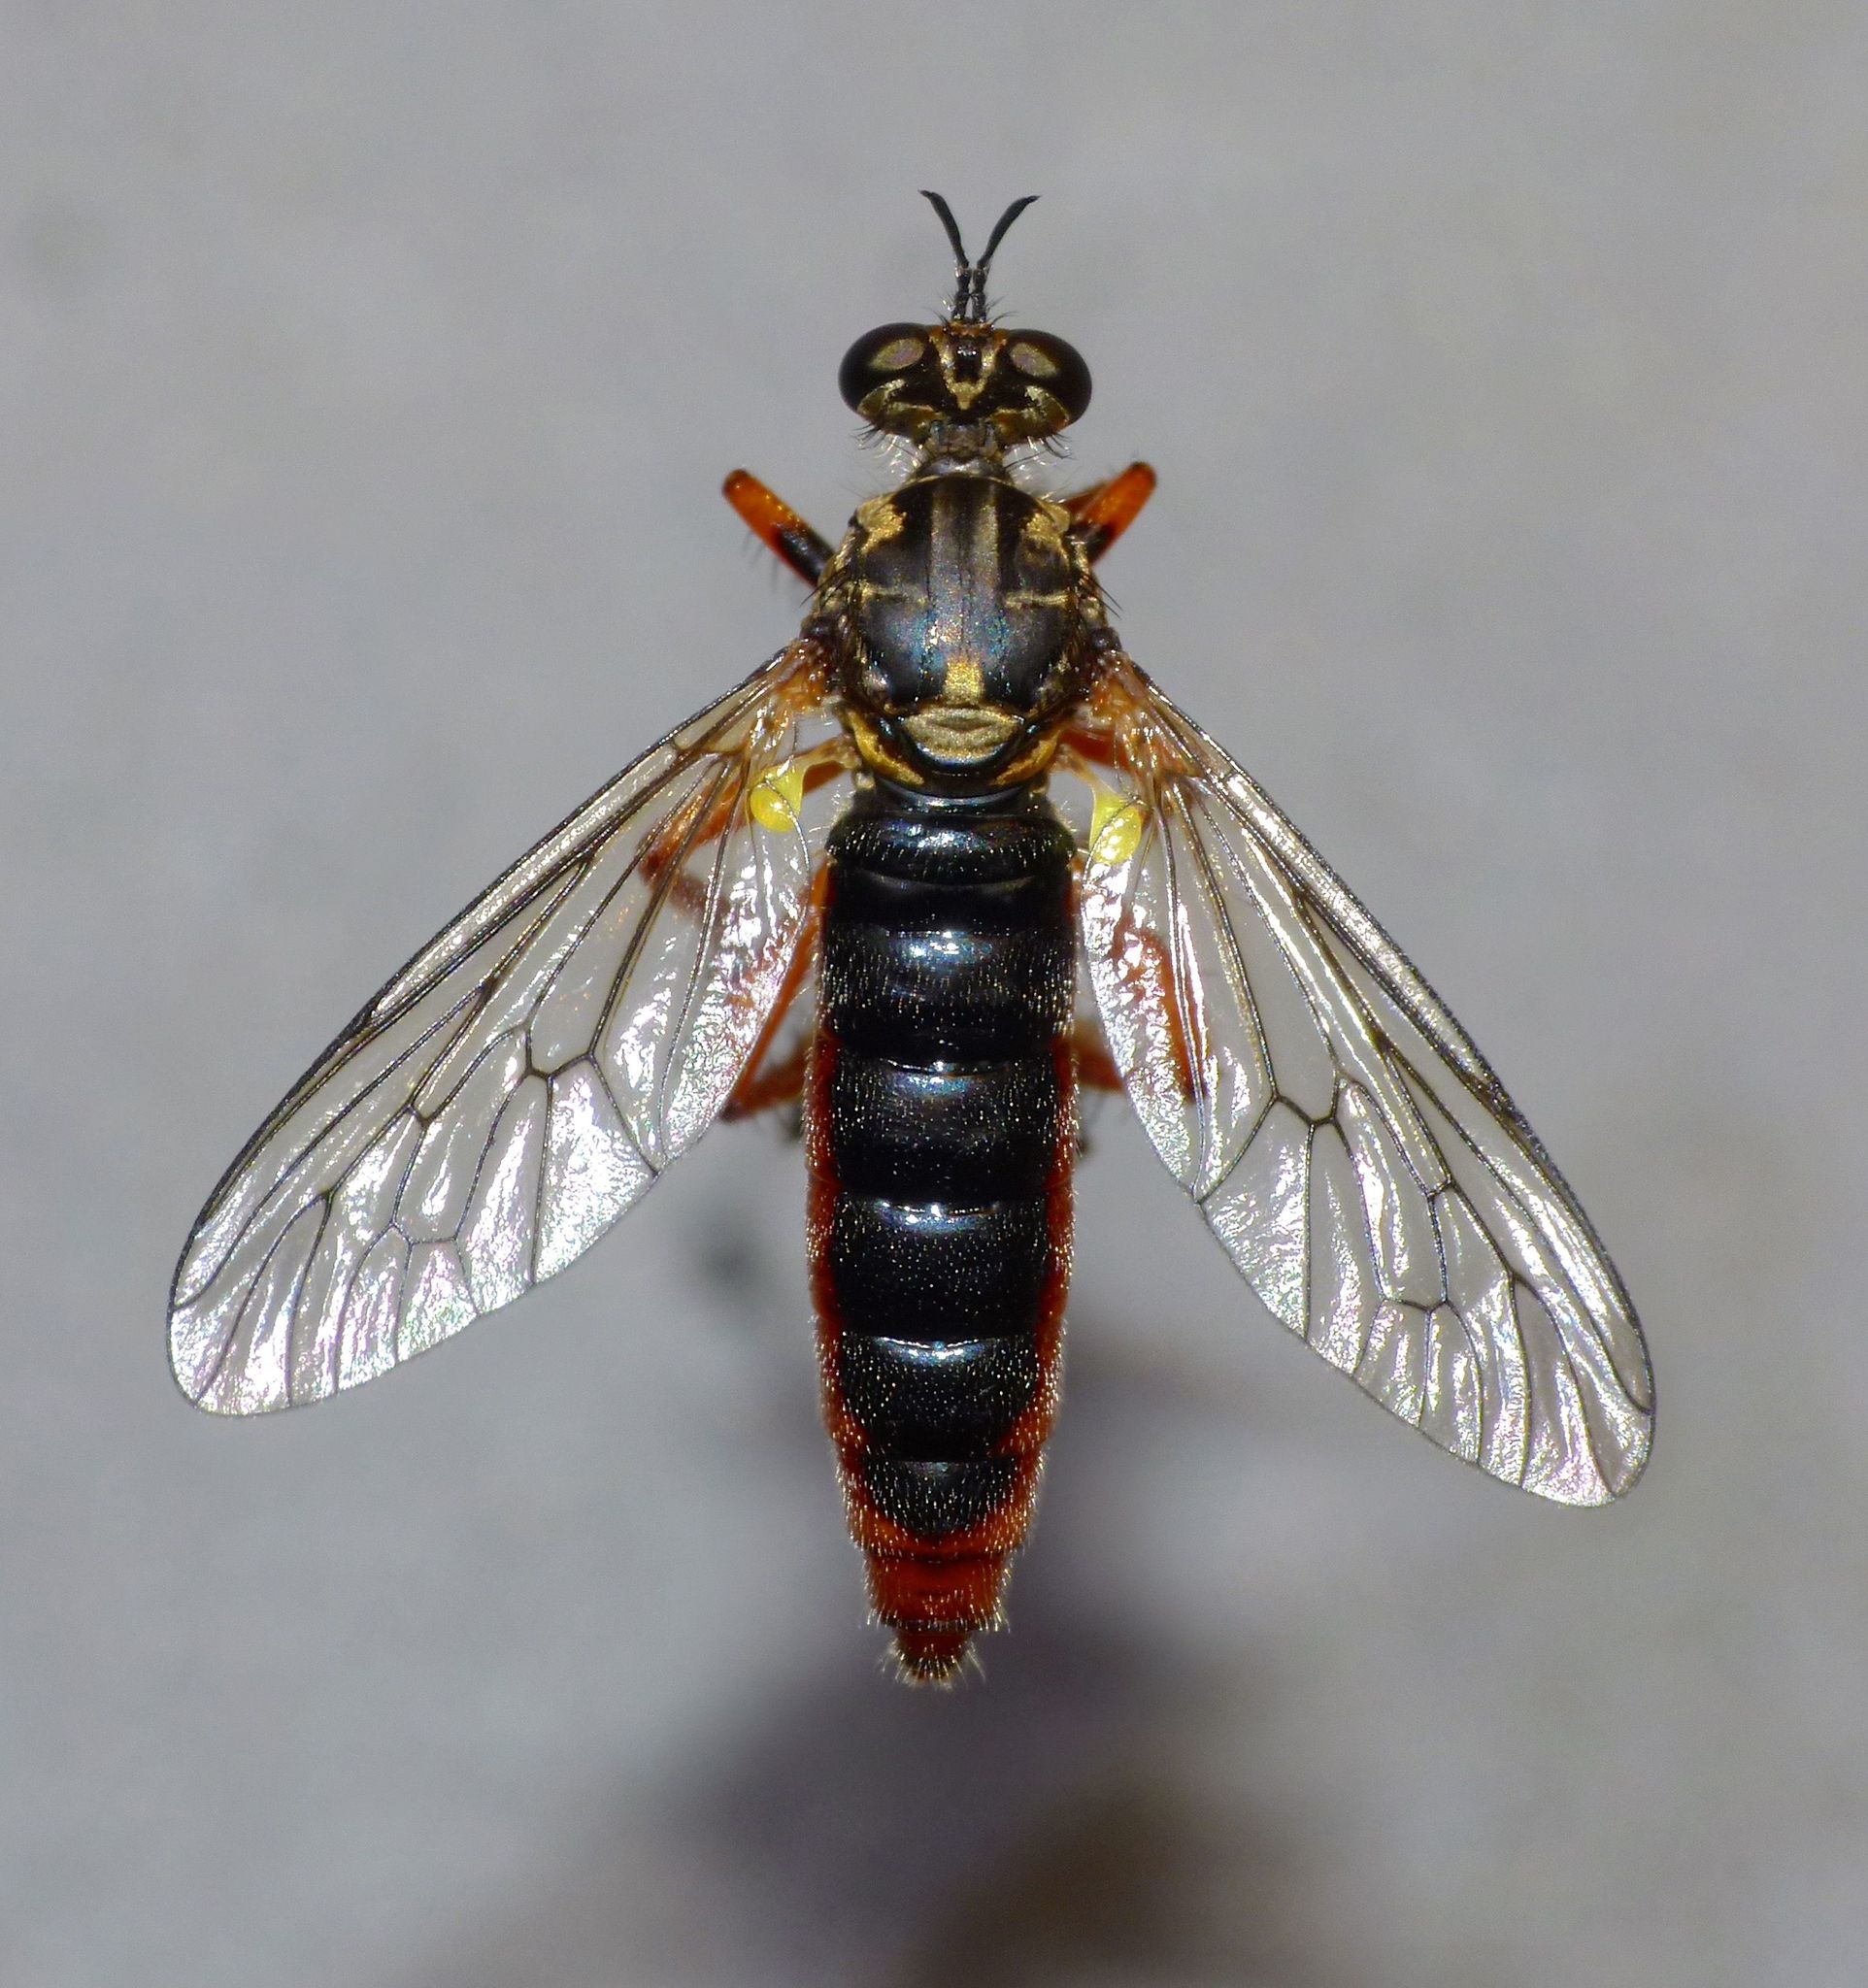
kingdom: Animalia
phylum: Arthropoda
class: Insecta
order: Diptera
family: Asilidae
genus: Saropogon
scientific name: Saropogon fugiens
